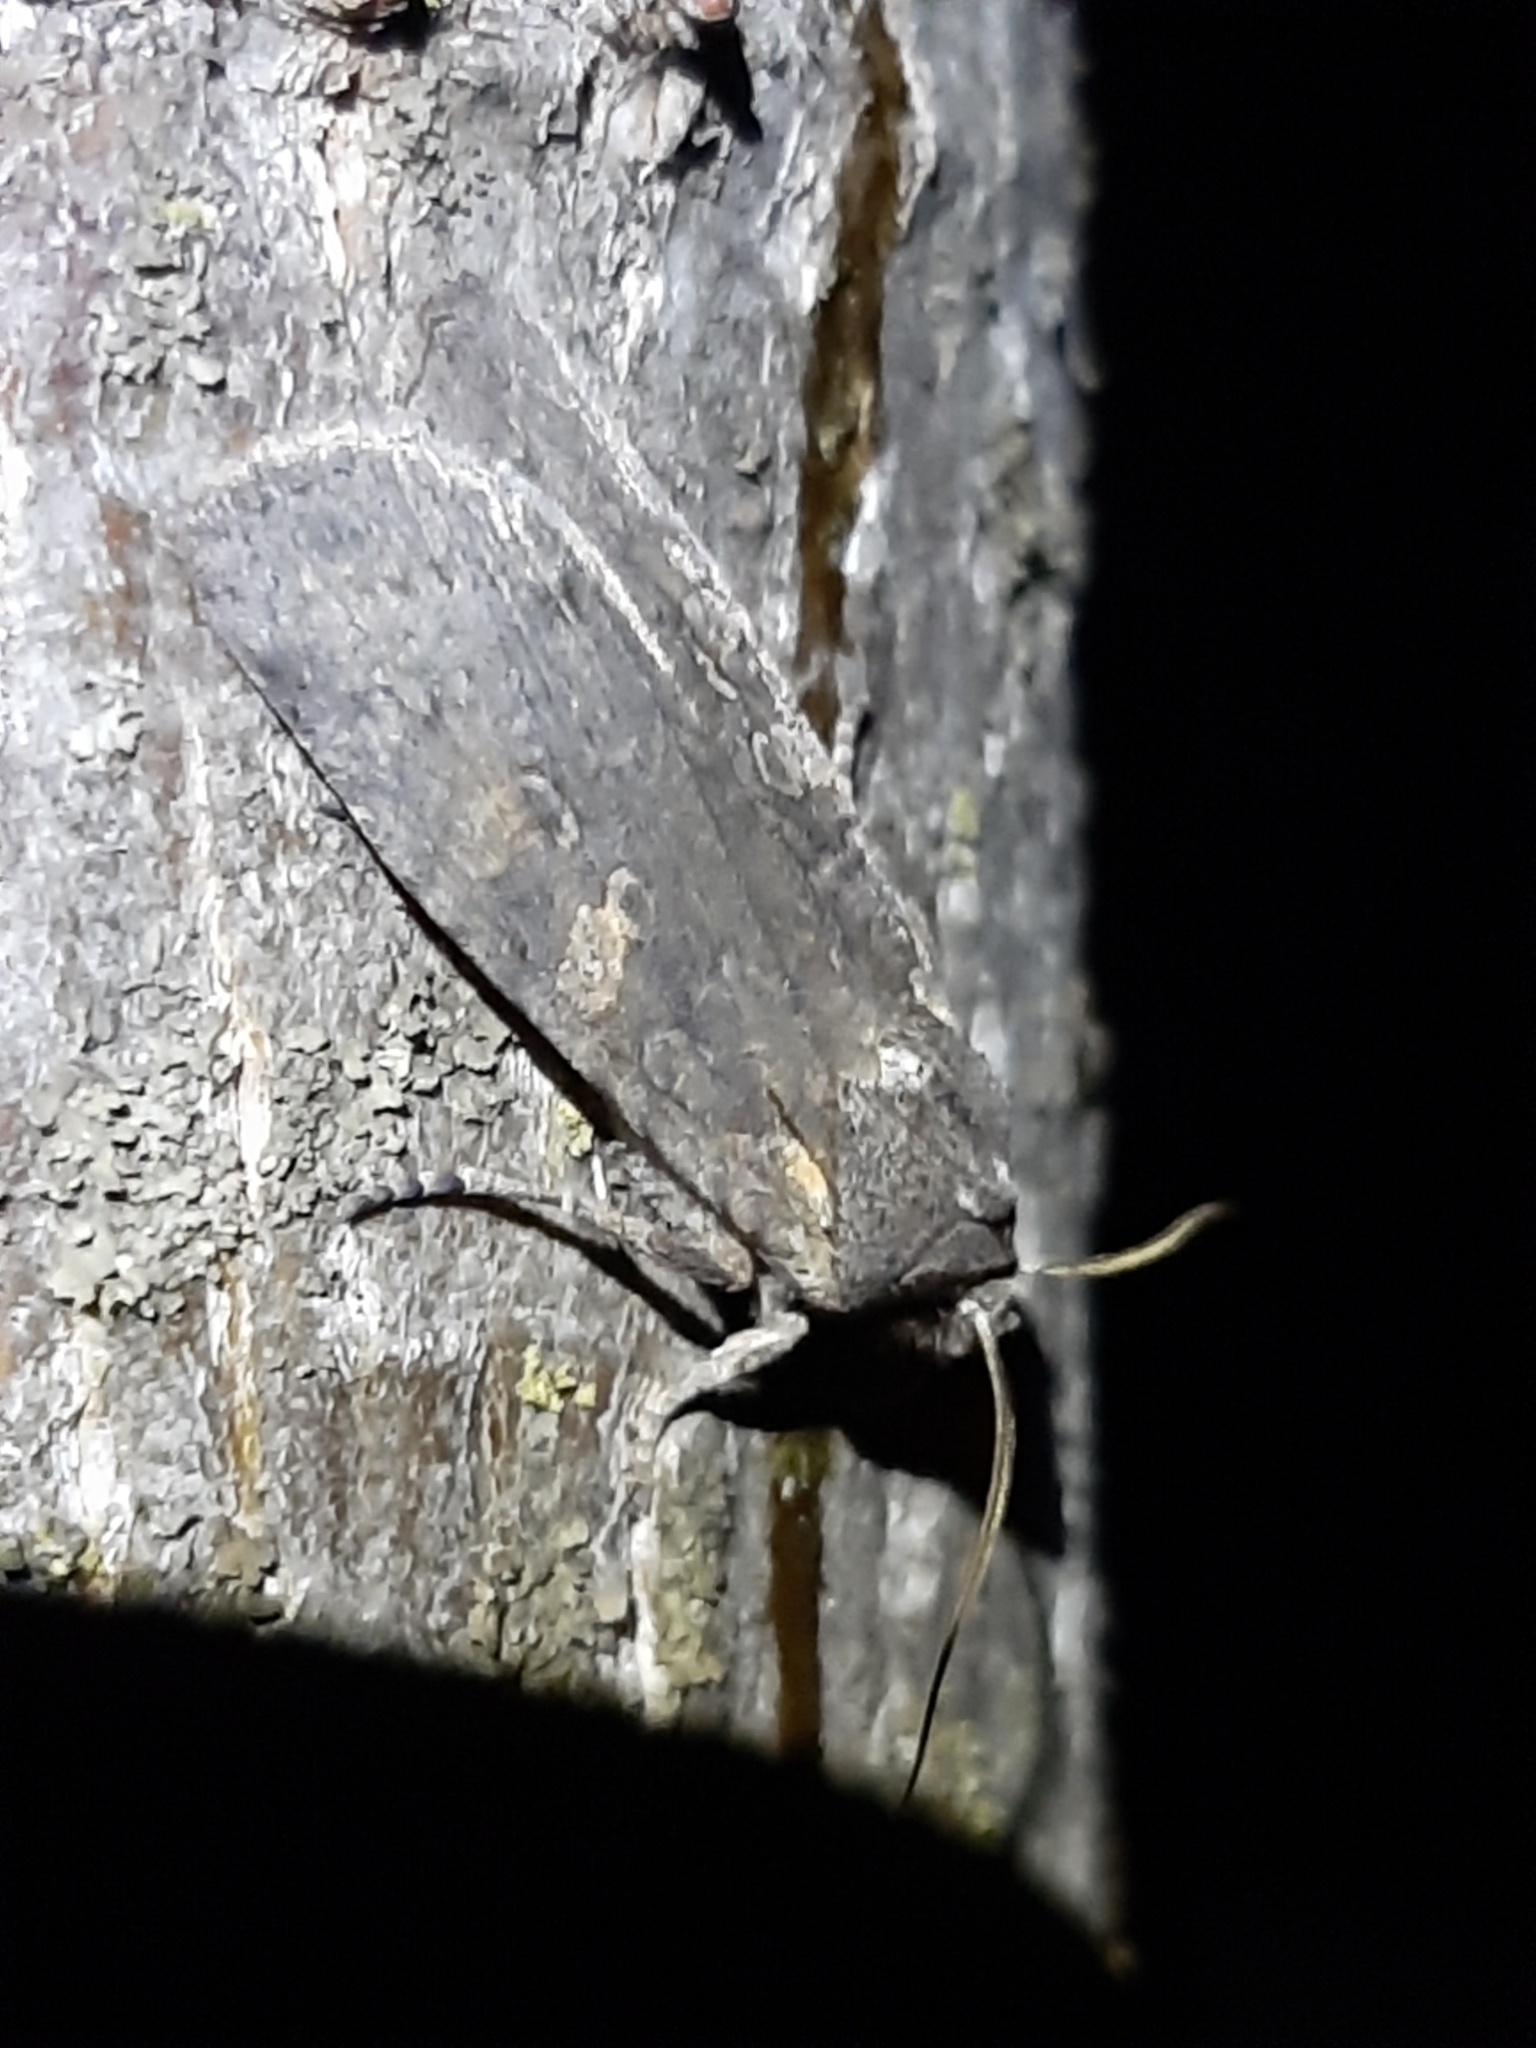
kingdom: Animalia
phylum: Arthropoda
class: Insecta
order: Lepidoptera
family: Noctuidae
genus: Lithophane
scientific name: Lithophane laticinerea
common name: Broad ashen pinion
